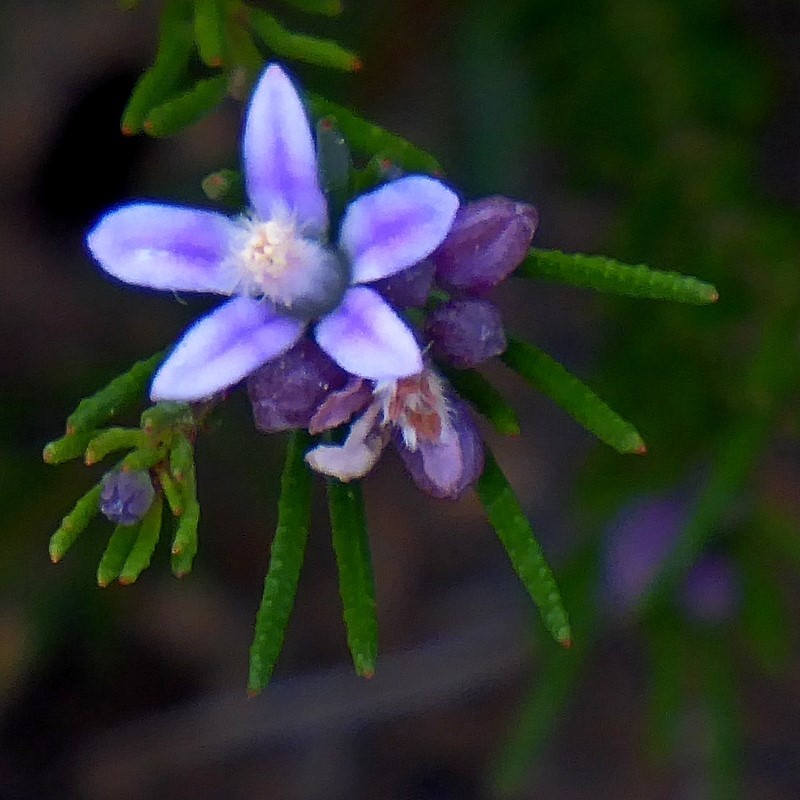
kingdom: Plantae
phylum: Tracheophyta
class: Magnoliopsida
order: Sapindales
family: Rutaceae
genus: Philotheca
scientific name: Philotheca salsolifolia
